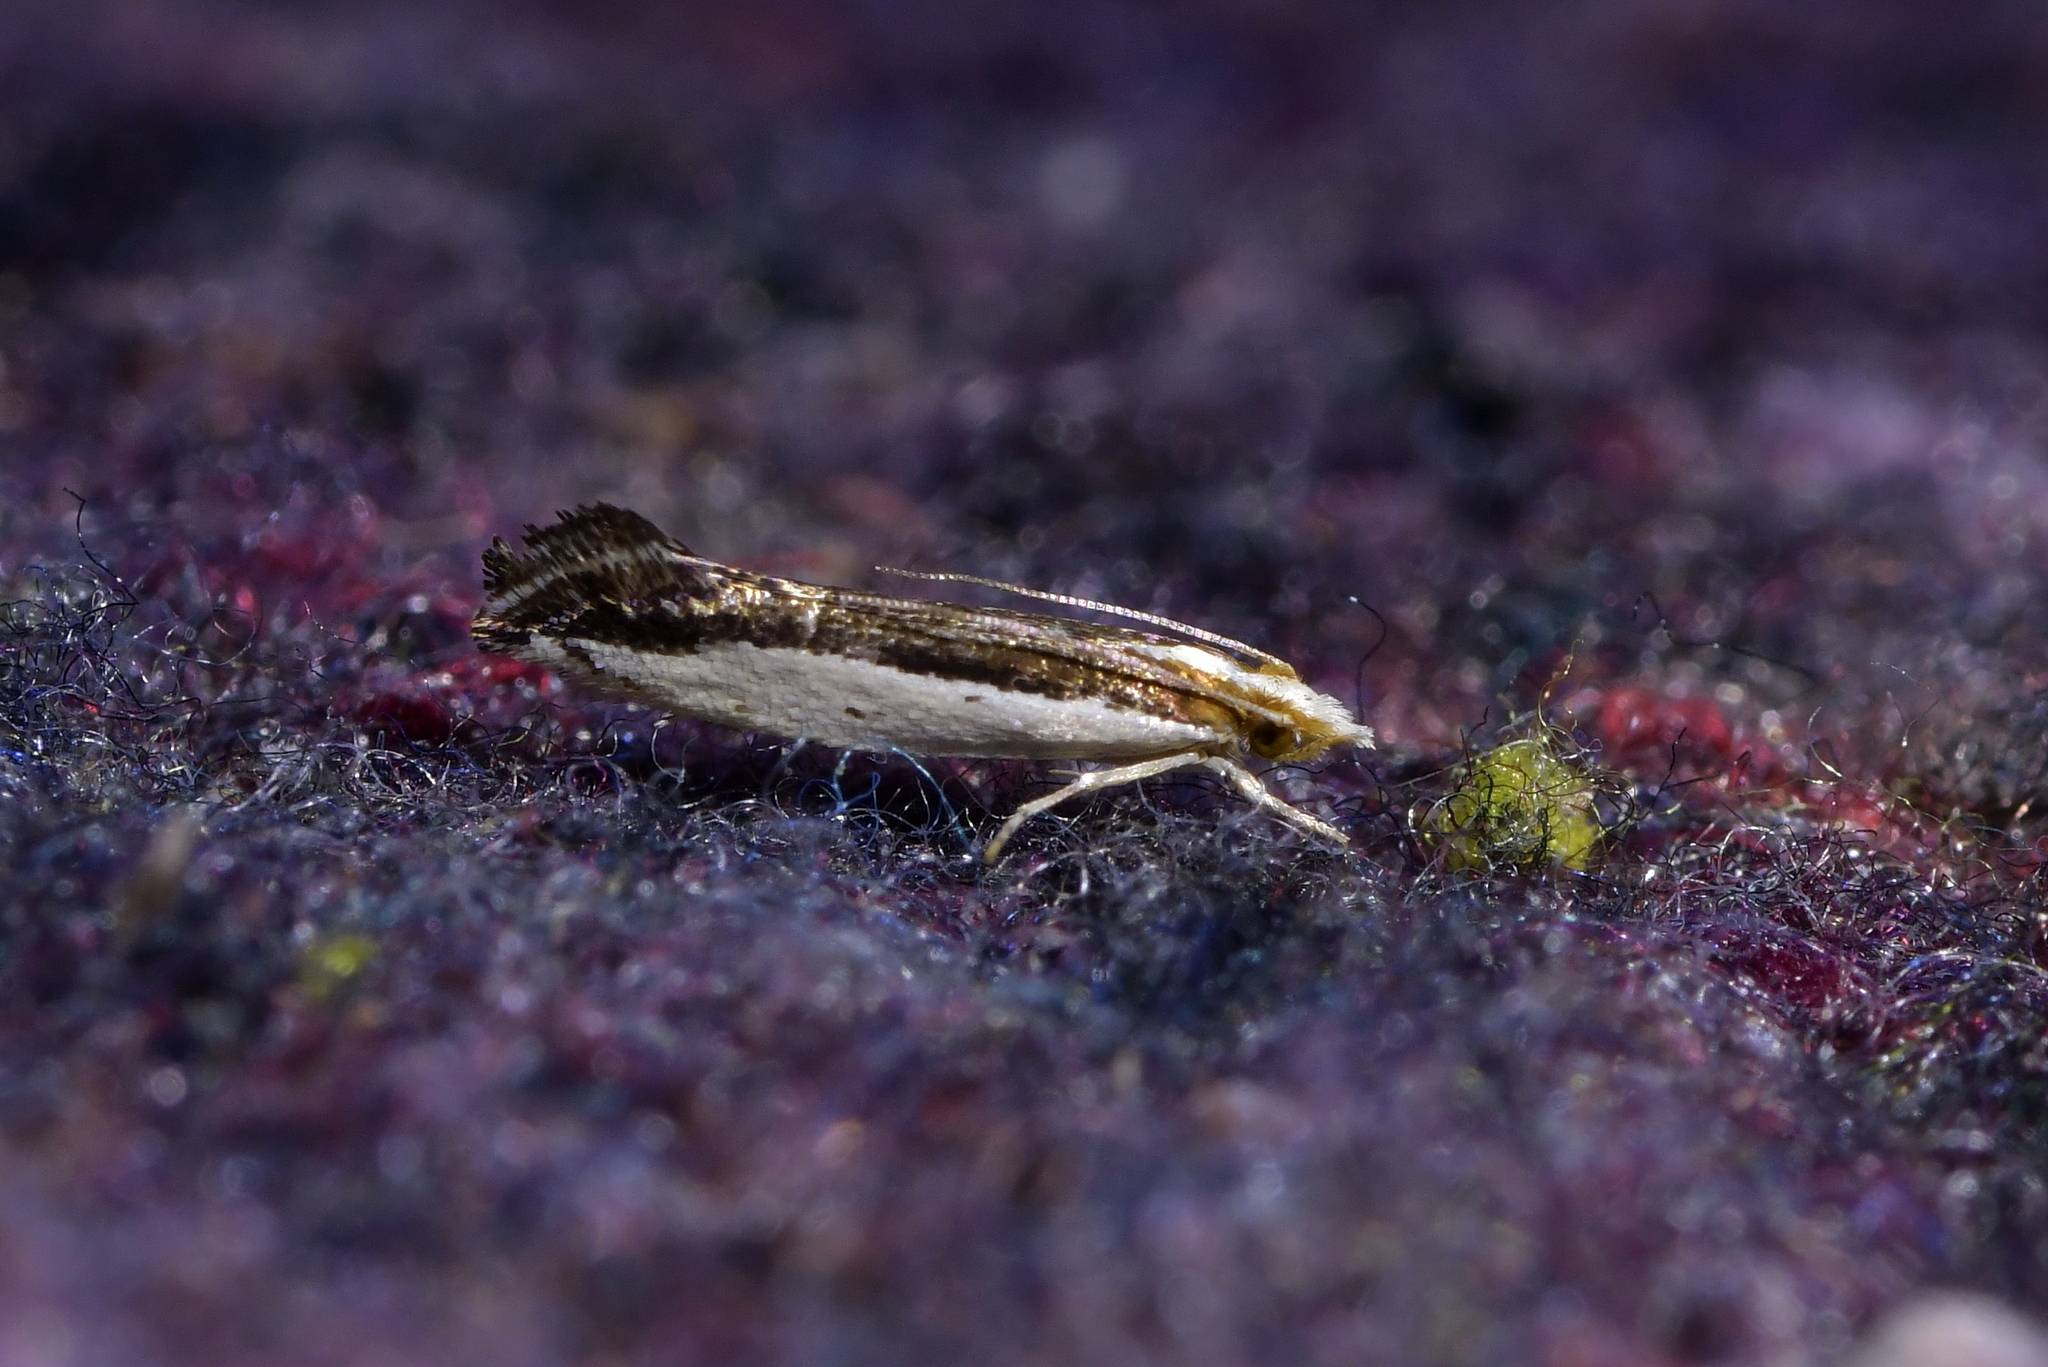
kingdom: Animalia
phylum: Arthropoda
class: Insecta
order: Lepidoptera
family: Tineidae
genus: Erechthias
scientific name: Erechthias chionodira
